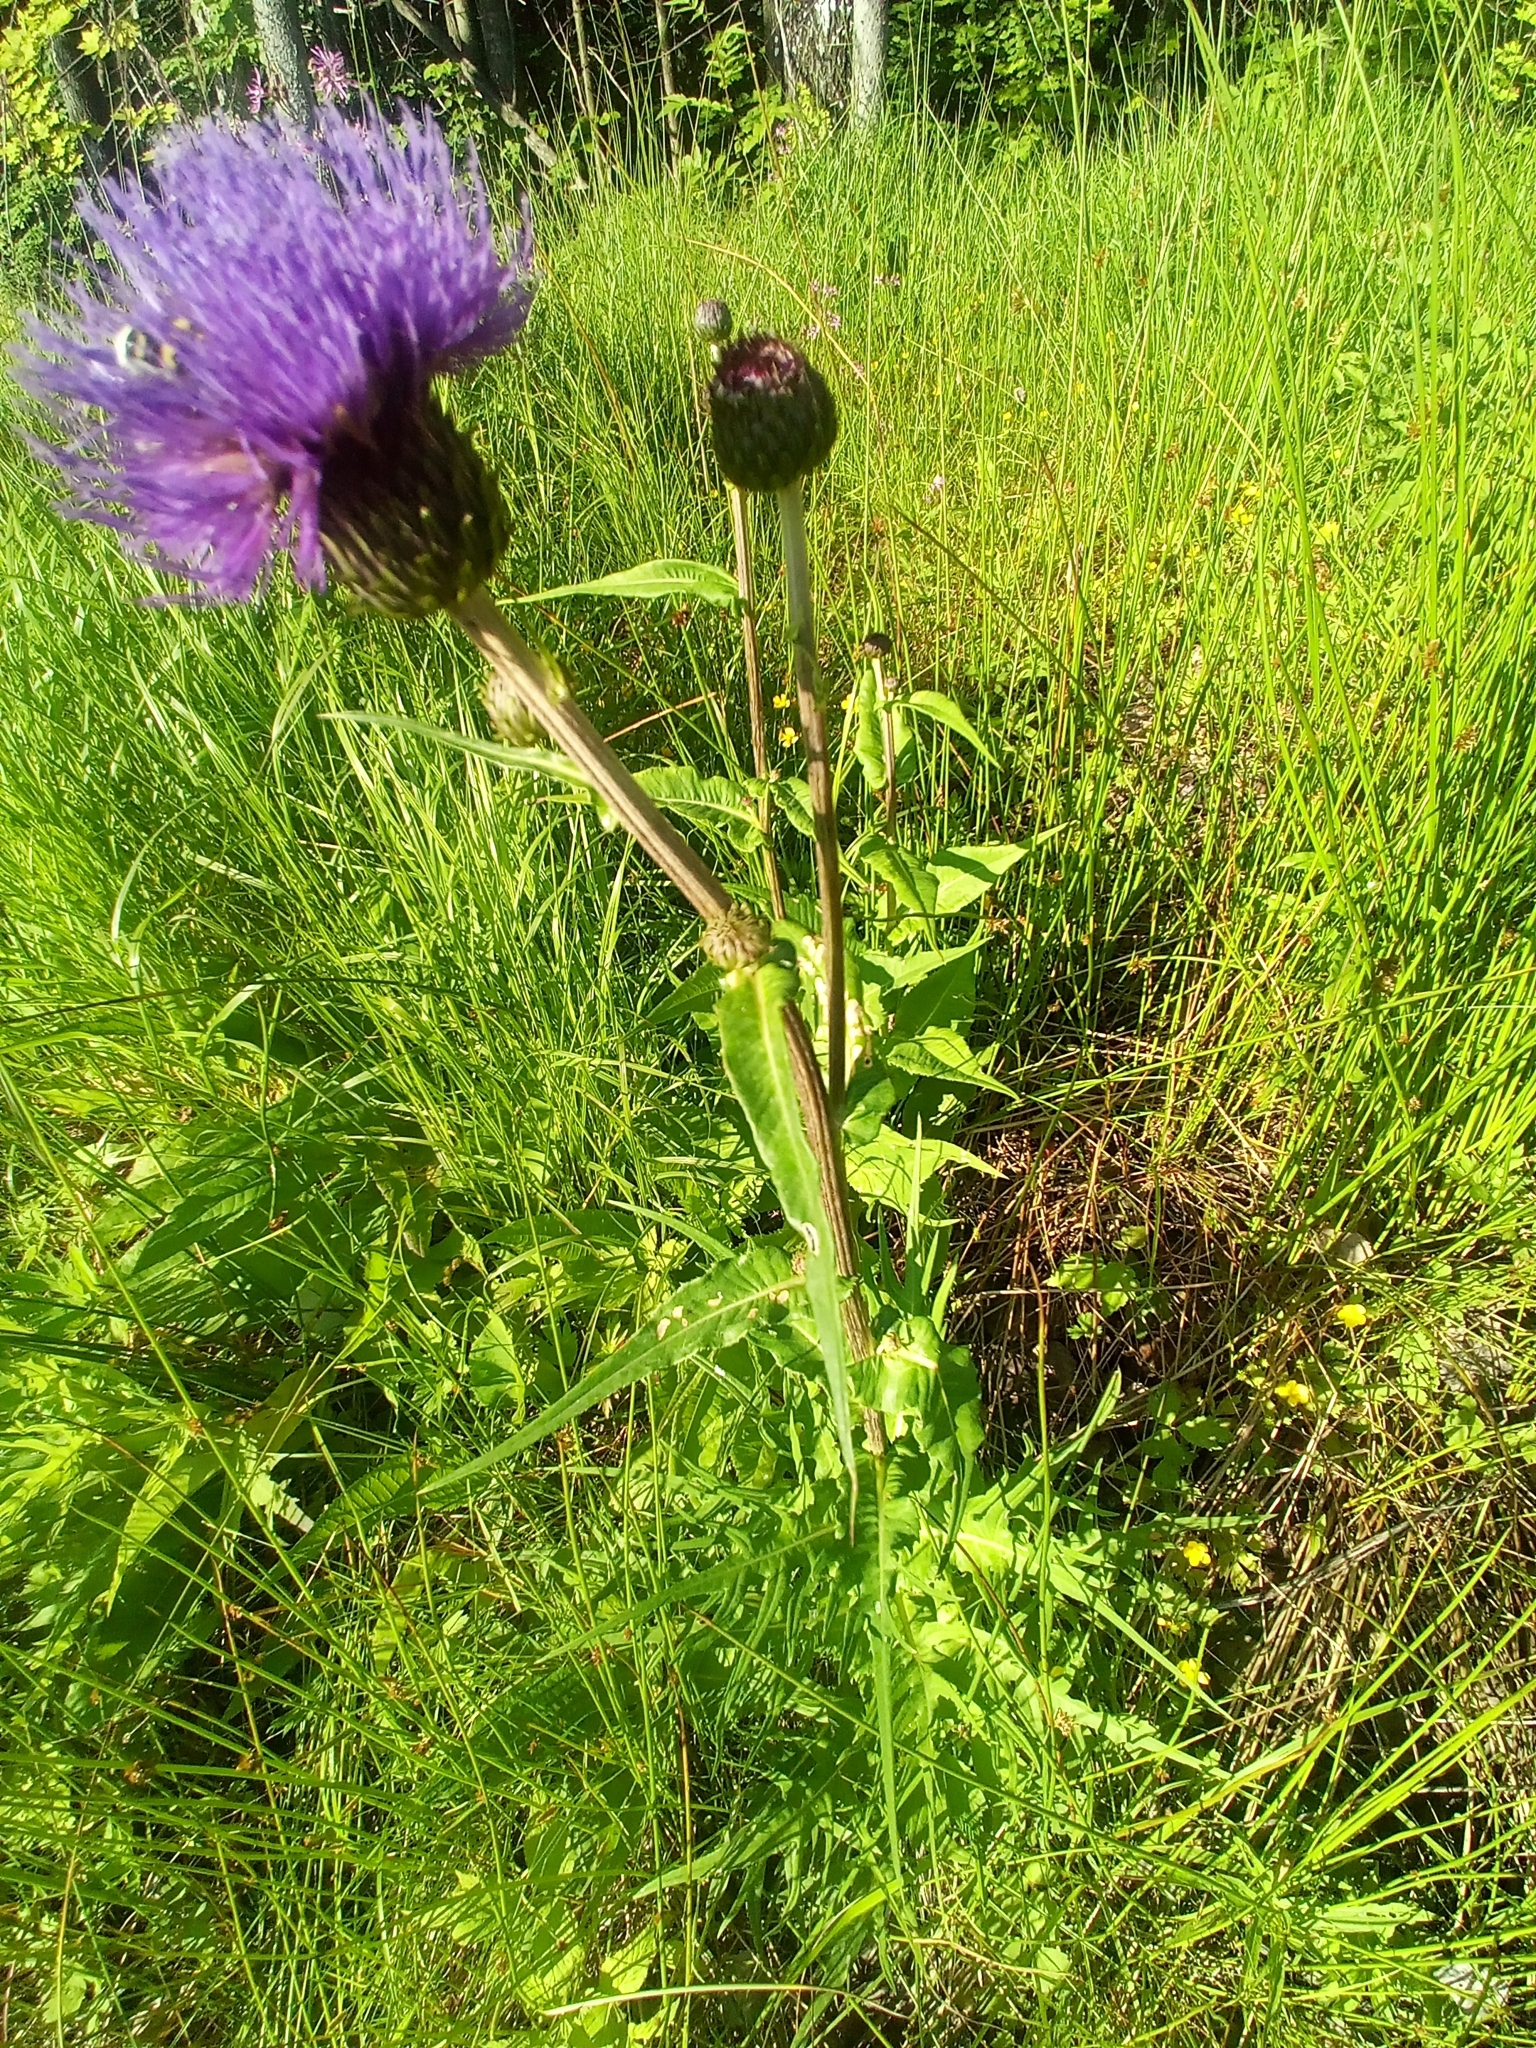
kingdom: Plantae
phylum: Tracheophyta
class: Magnoliopsida
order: Asterales
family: Asteraceae
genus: Cirsium
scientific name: Cirsium heterophyllum
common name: Melancholy thistle
